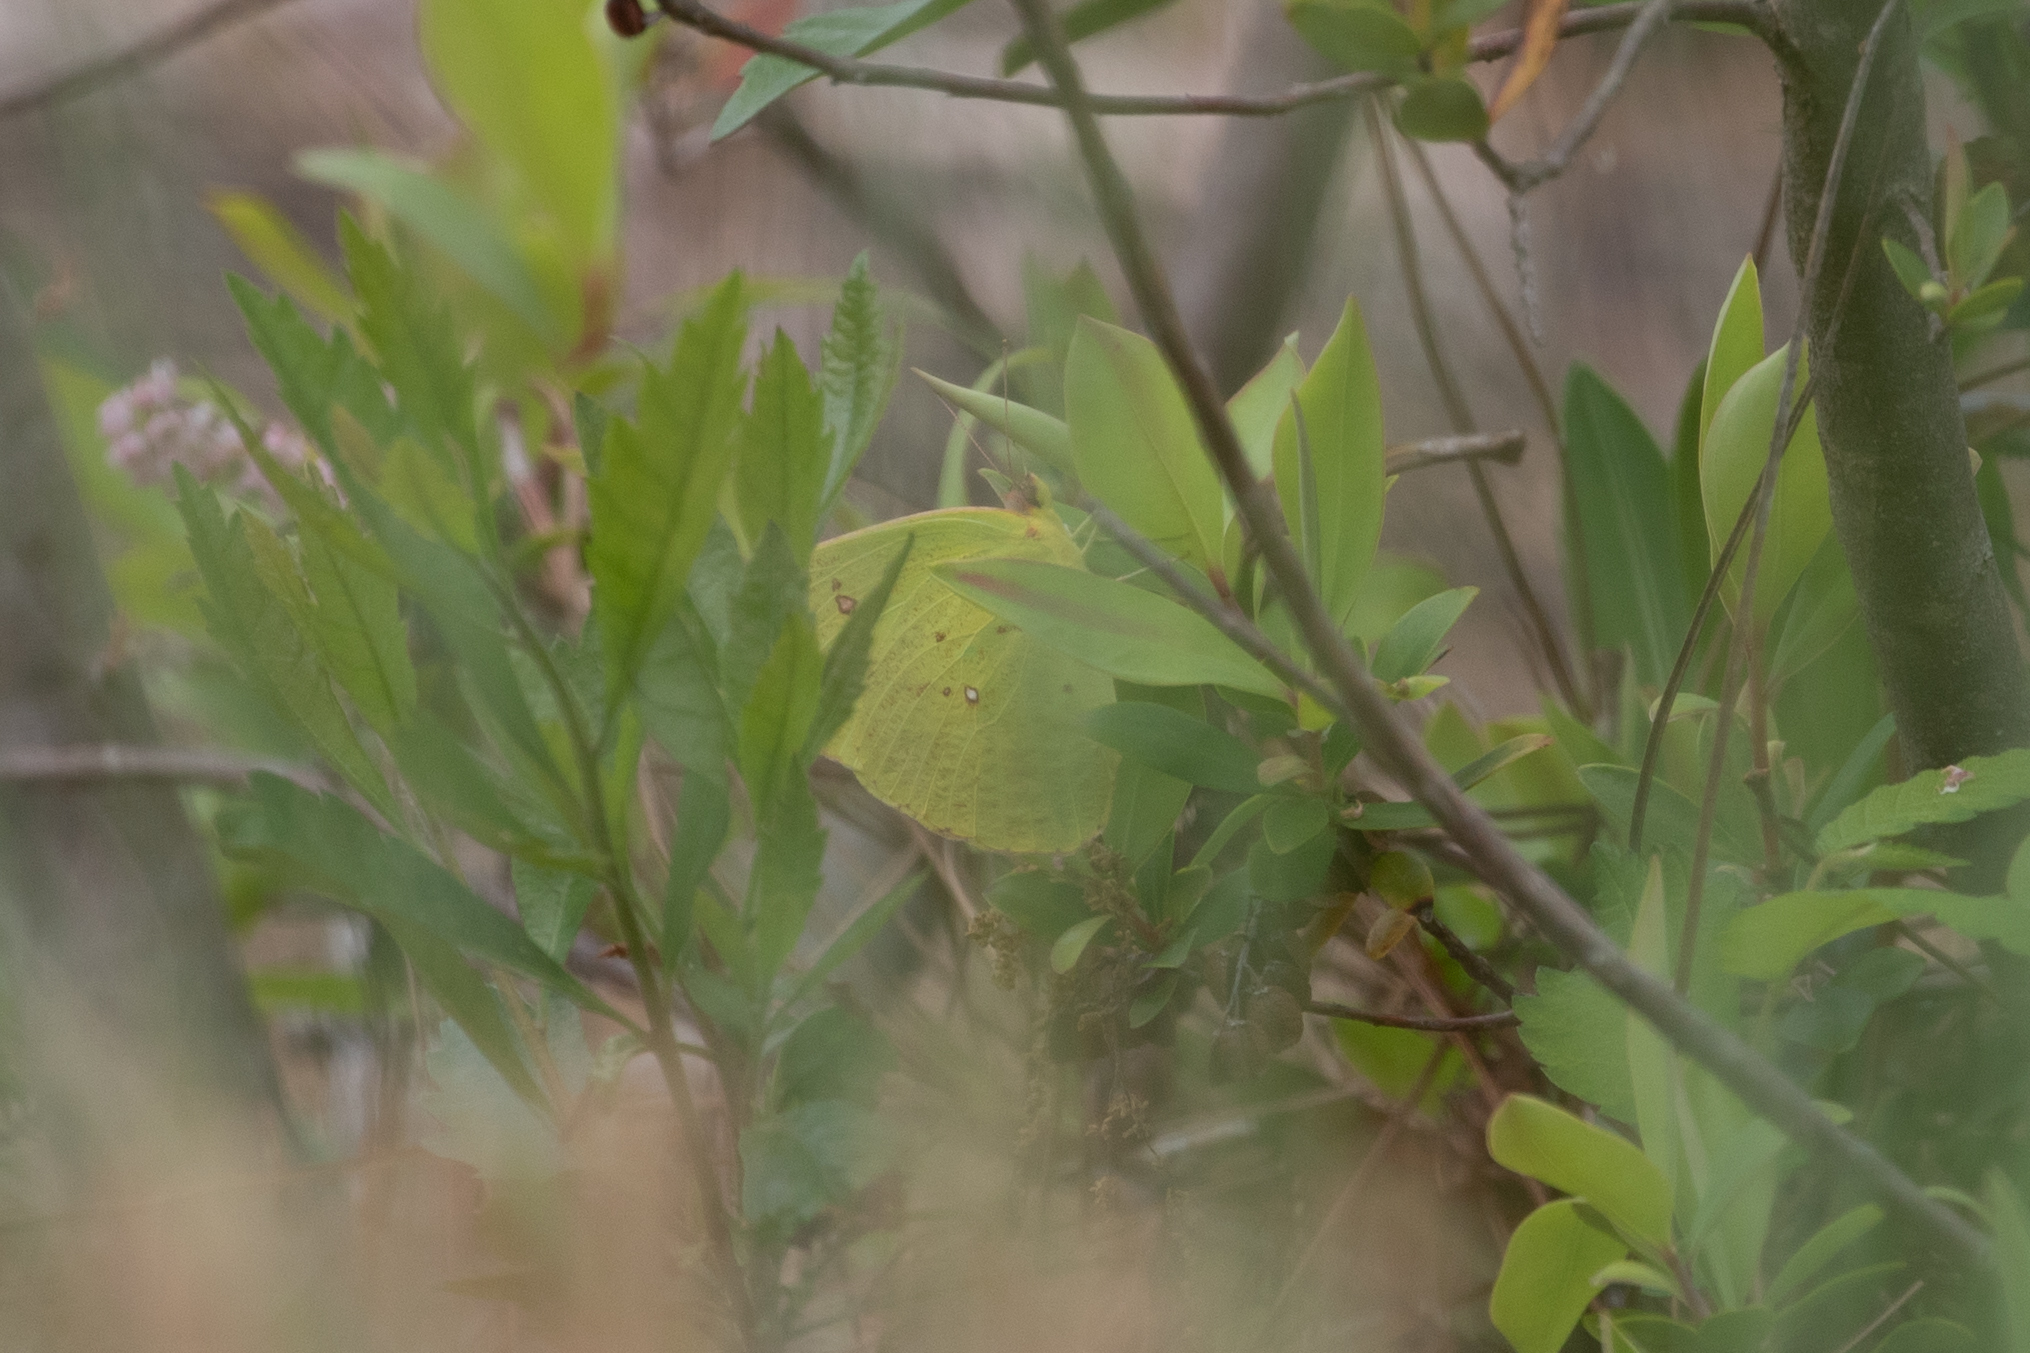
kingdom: Animalia
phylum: Arthropoda
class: Insecta
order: Lepidoptera
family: Pieridae
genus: Phoebis
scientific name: Phoebis sennae
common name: Cloudless sulphur
